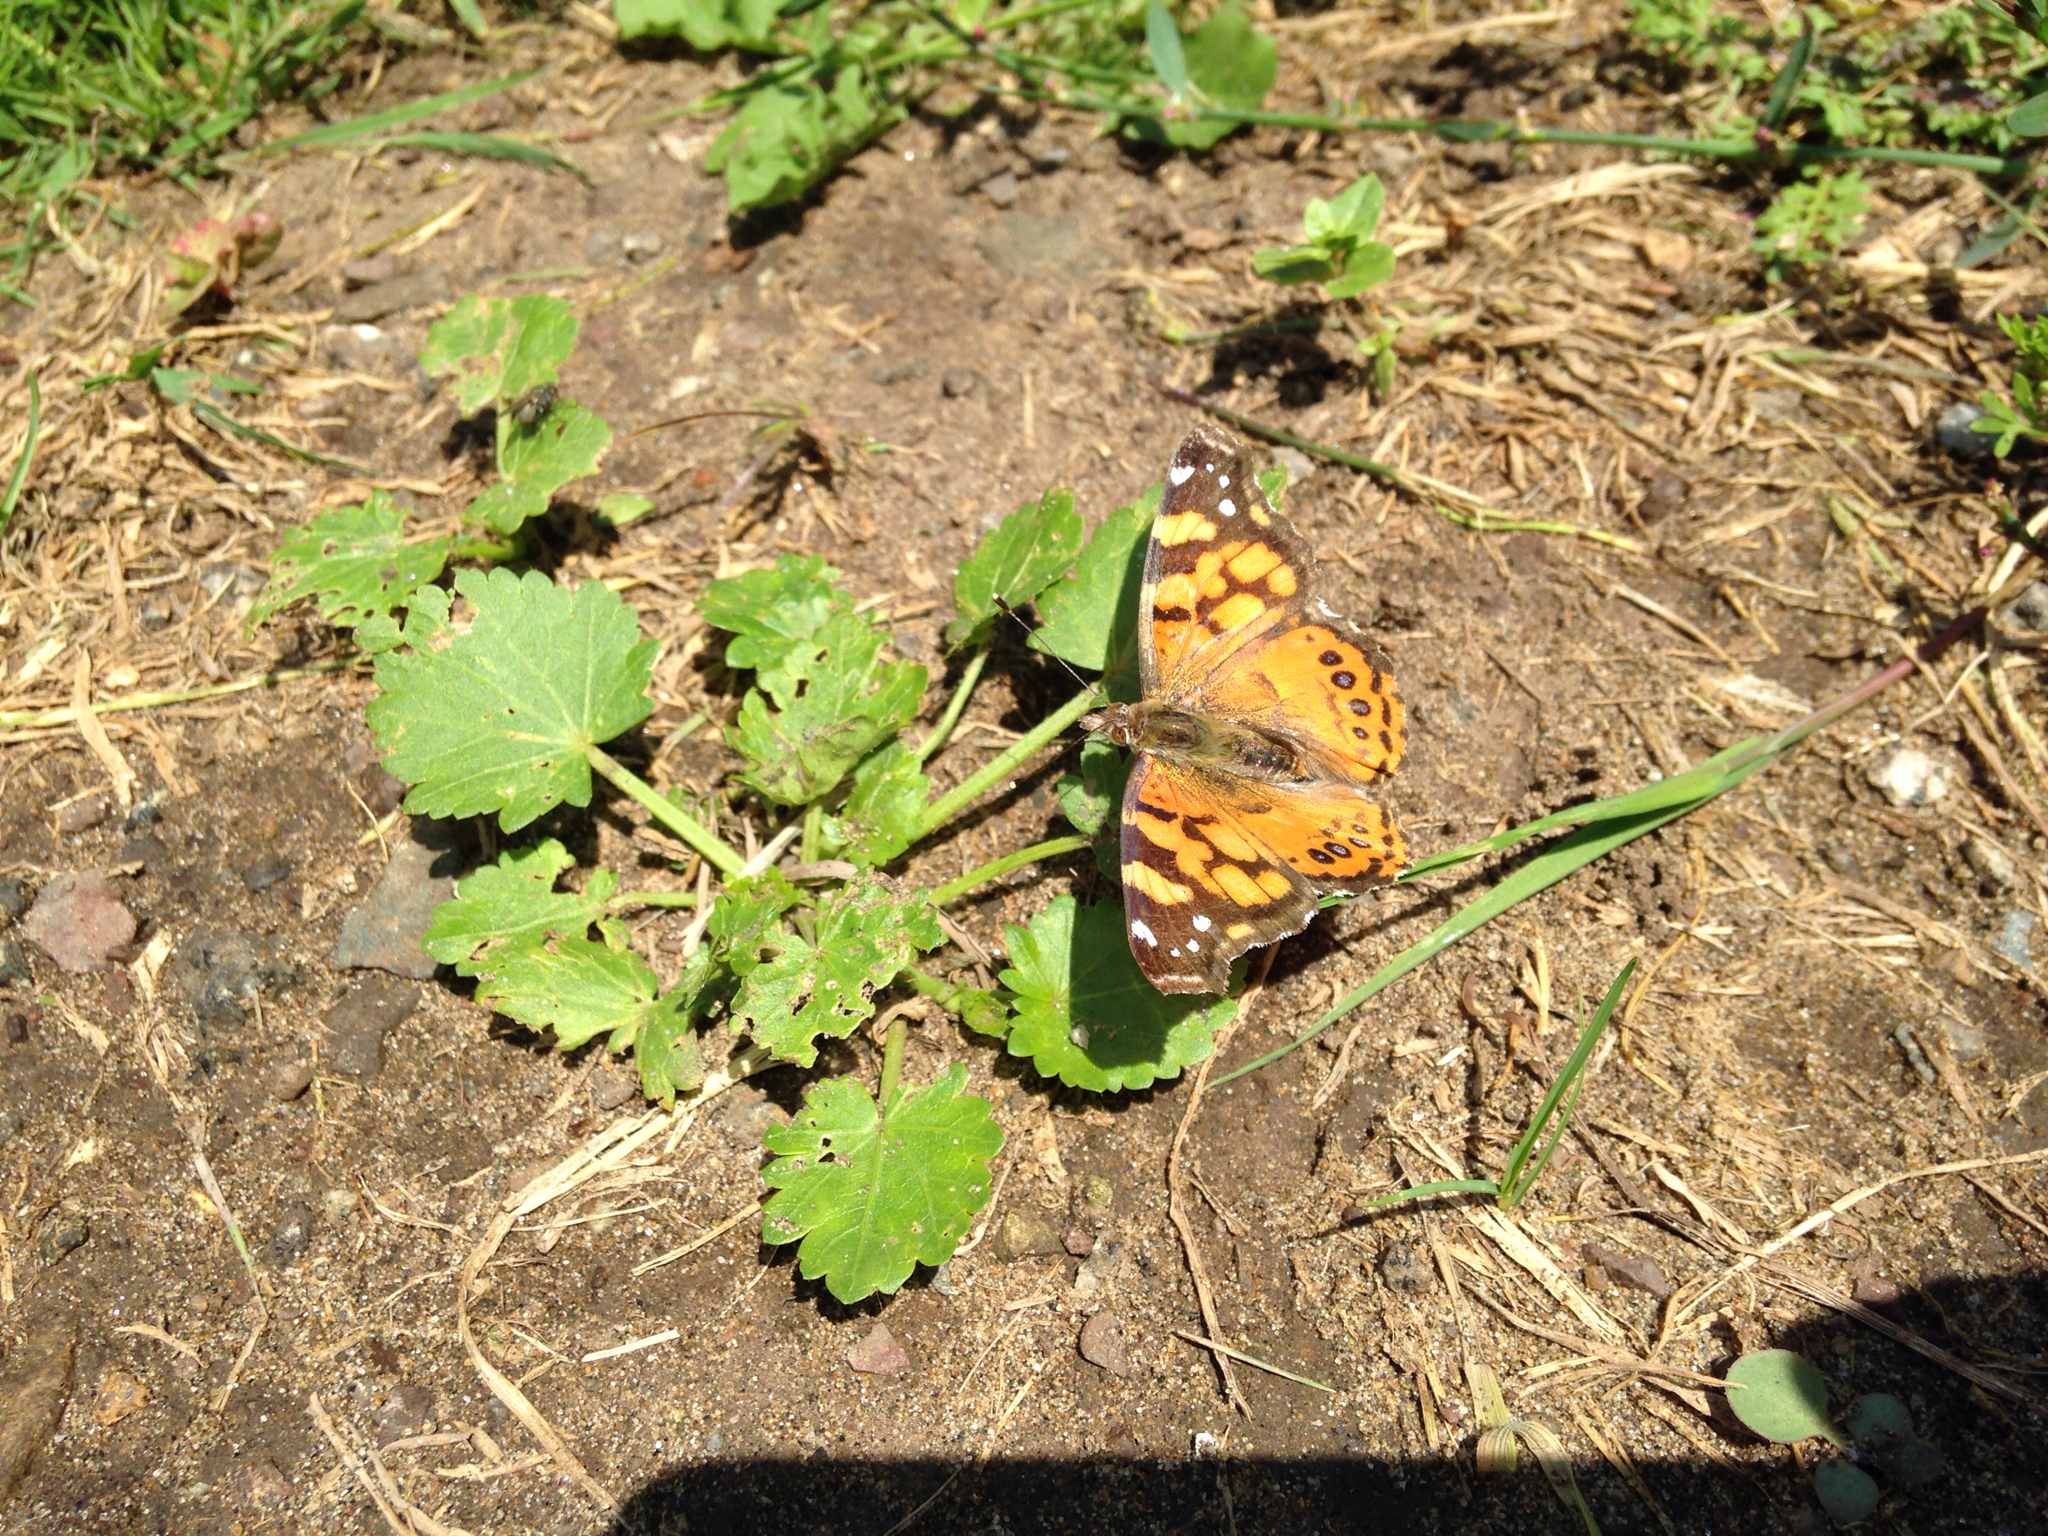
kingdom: Animalia
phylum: Arthropoda
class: Insecta
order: Lepidoptera
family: Nymphalidae
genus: Vanessa
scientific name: Vanessa annabella
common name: West coast lady
